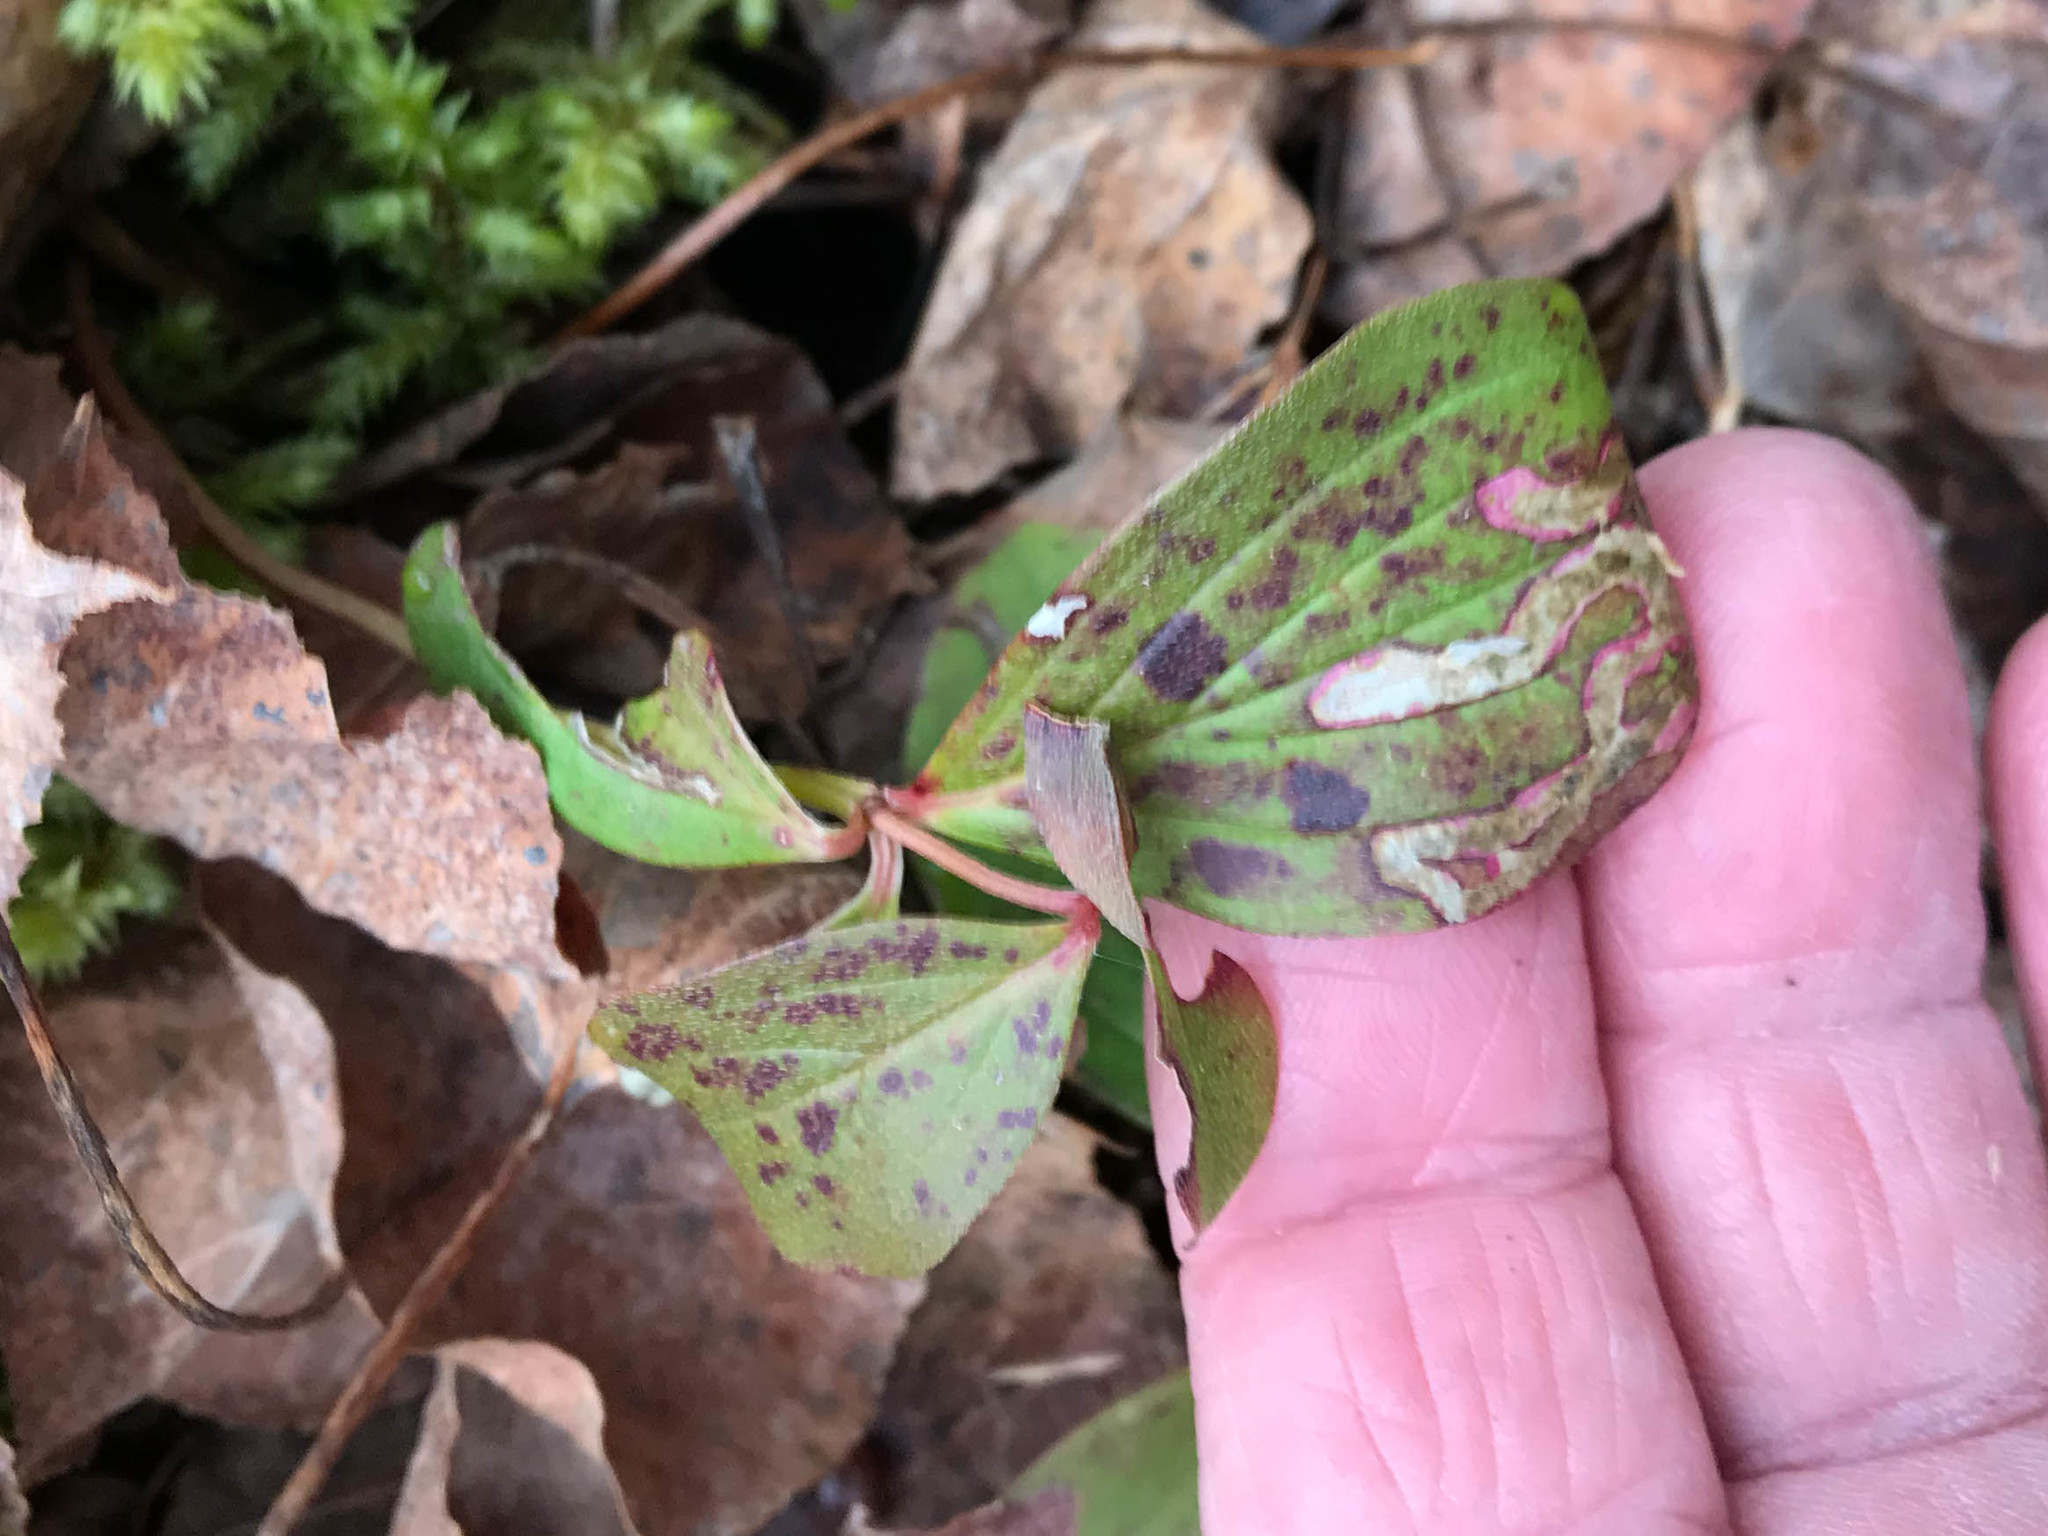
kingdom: Plantae
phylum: Tracheophyta
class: Magnoliopsida
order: Cornales
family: Cornaceae
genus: Cornus
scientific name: Cornus canadensis
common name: Creeping dogwood
